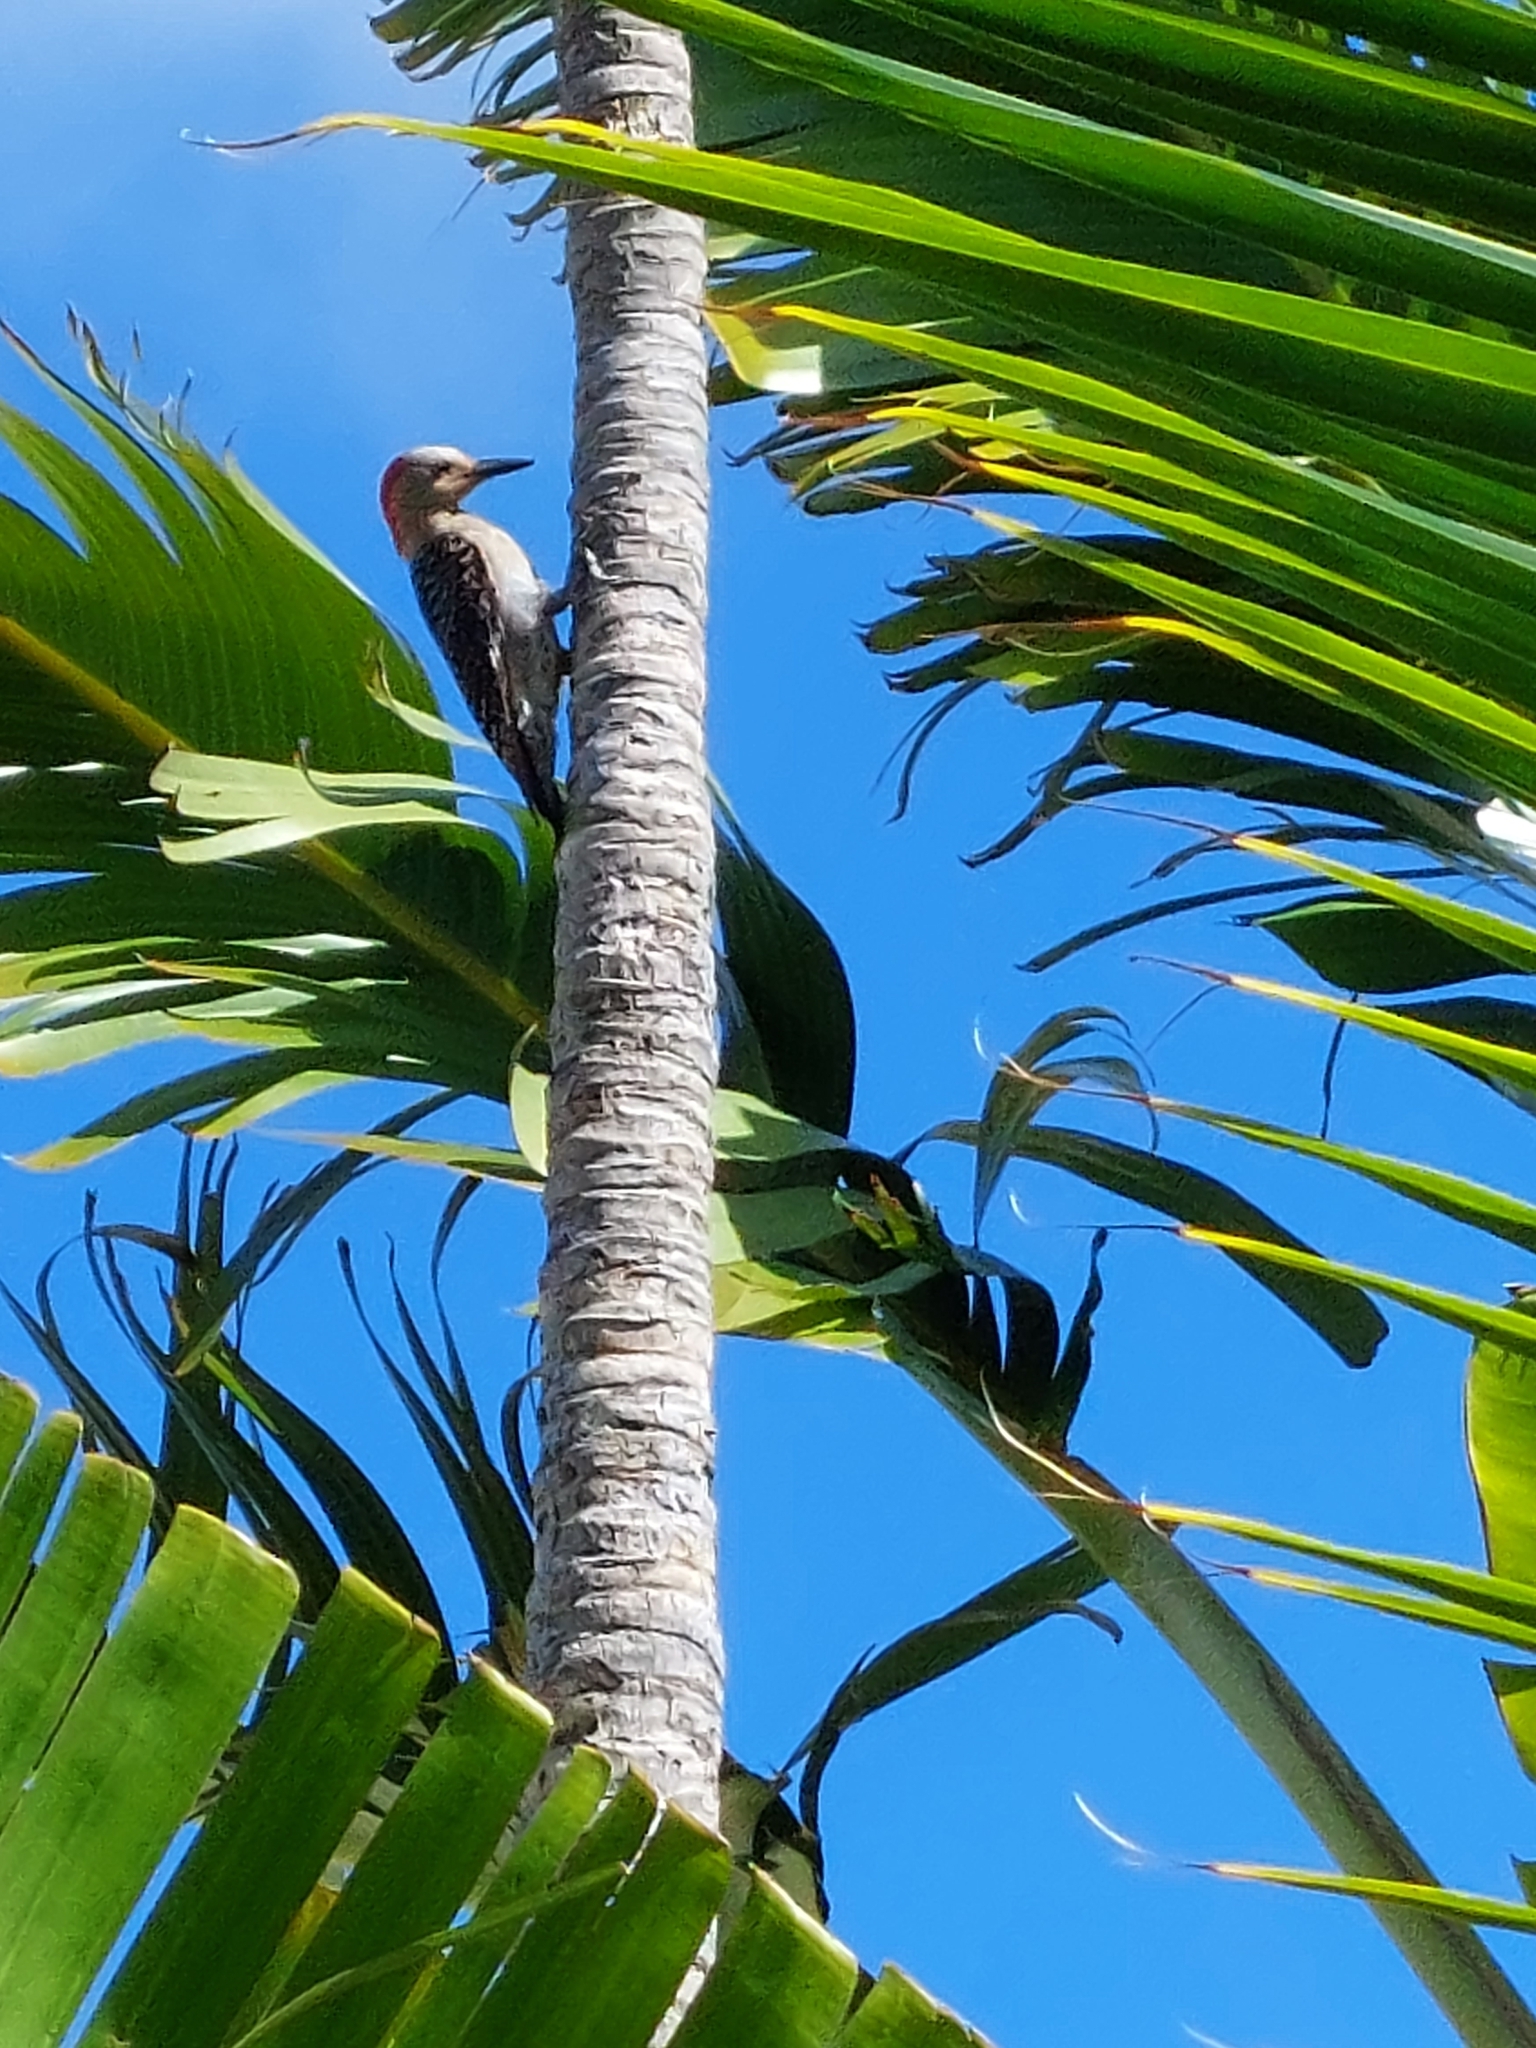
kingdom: Animalia
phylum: Chordata
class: Aves
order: Piciformes
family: Picidae
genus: Melanerpes
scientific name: Melanerpes carolinus
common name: Red-bellied woodpecker
